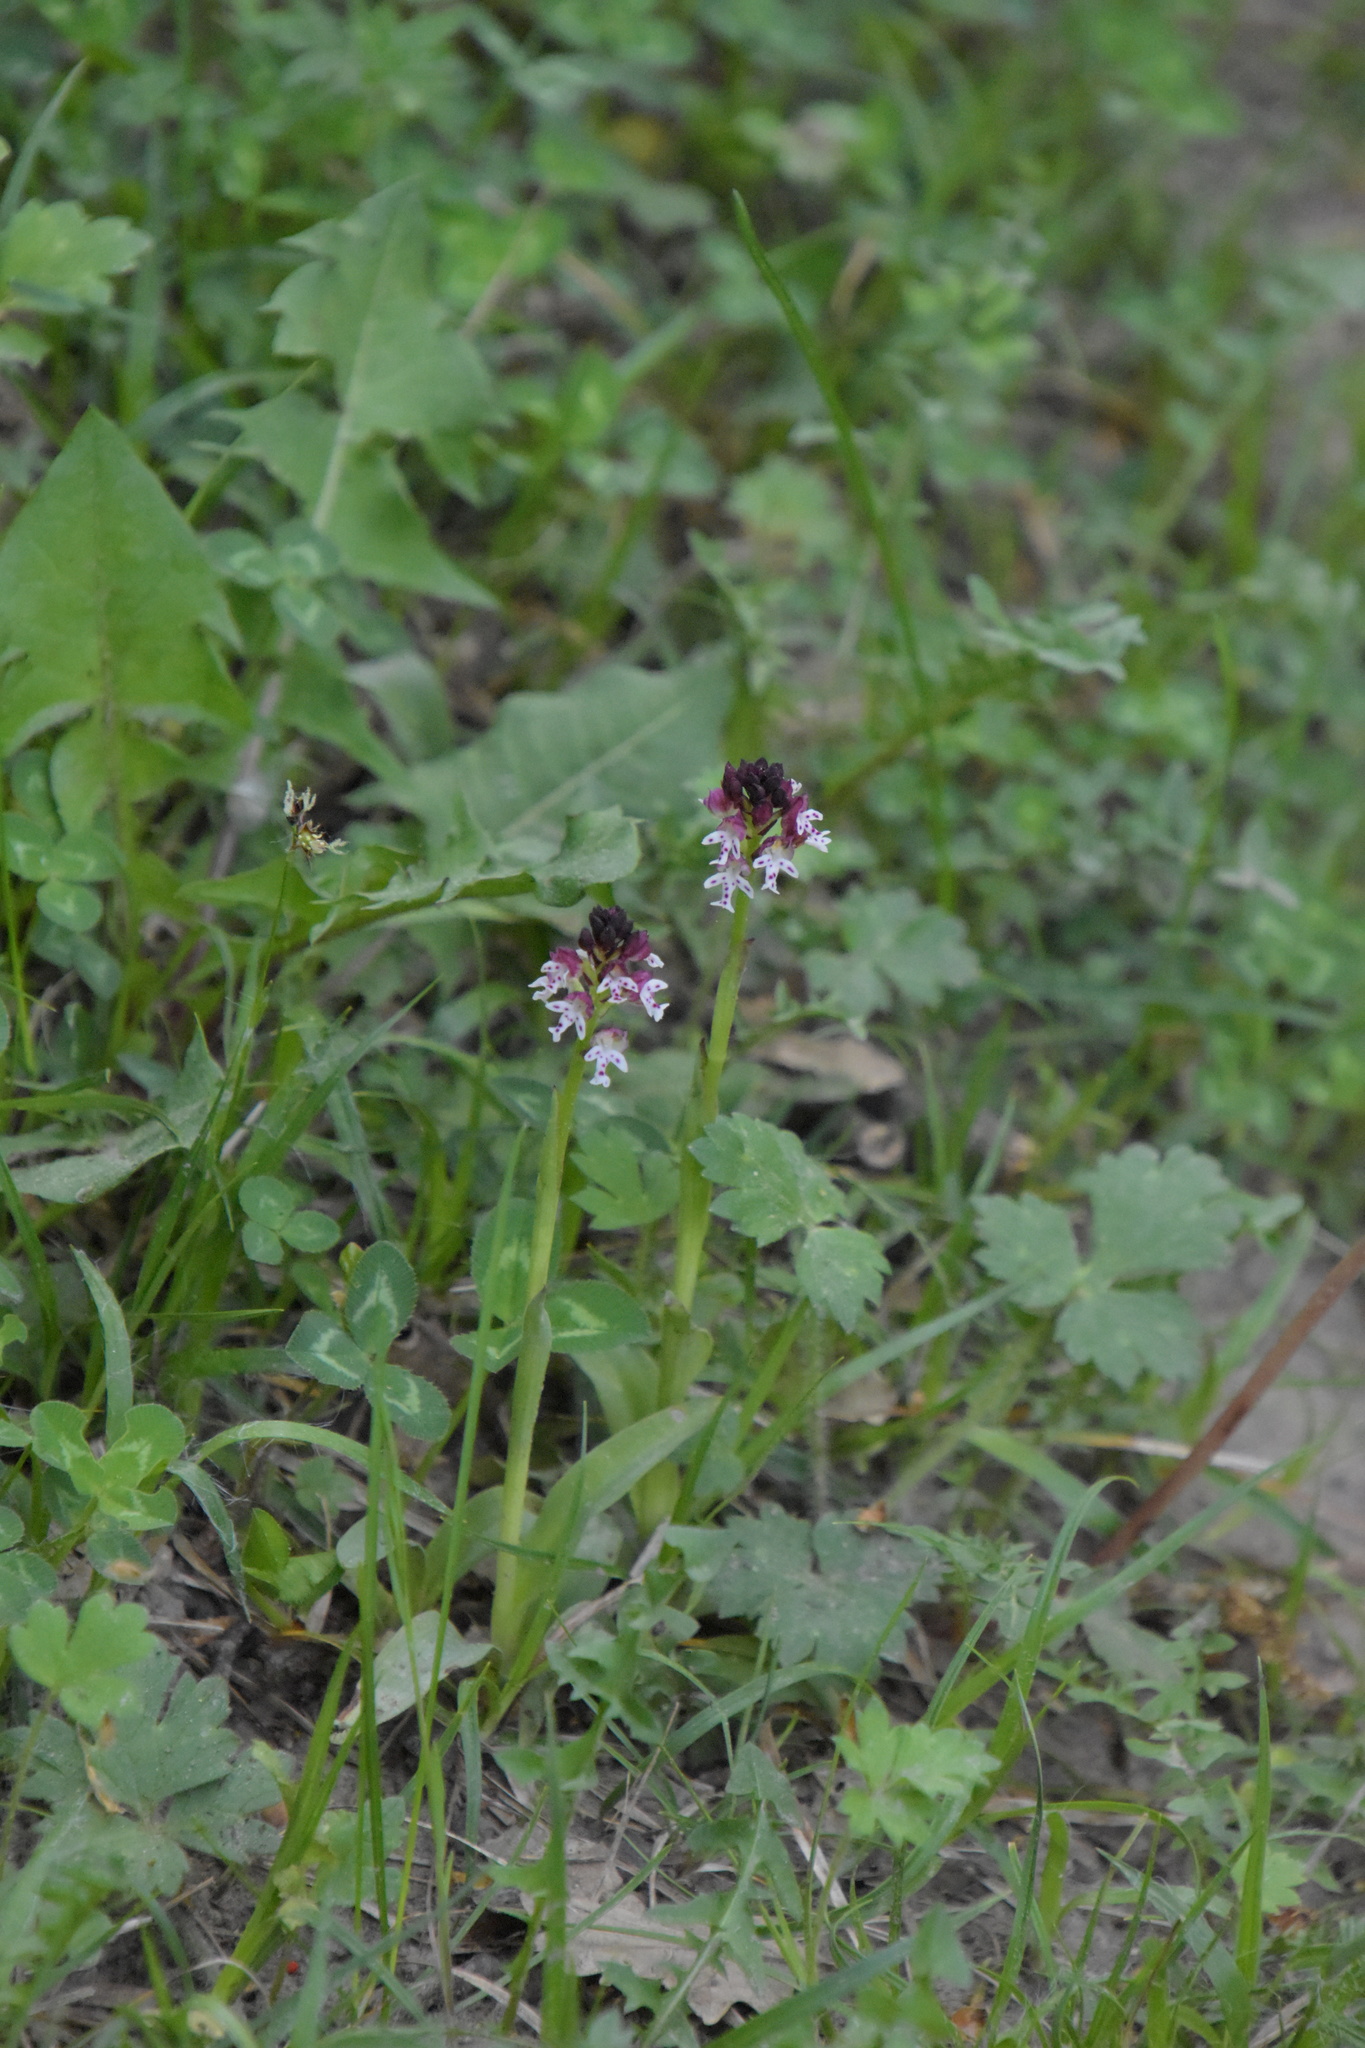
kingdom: Plantae
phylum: Tracheophyta
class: Liliopsida
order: Asparagales
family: Orchidaceae
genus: Neotinea
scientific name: Neotinea ustulata
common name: Burnt orchid
